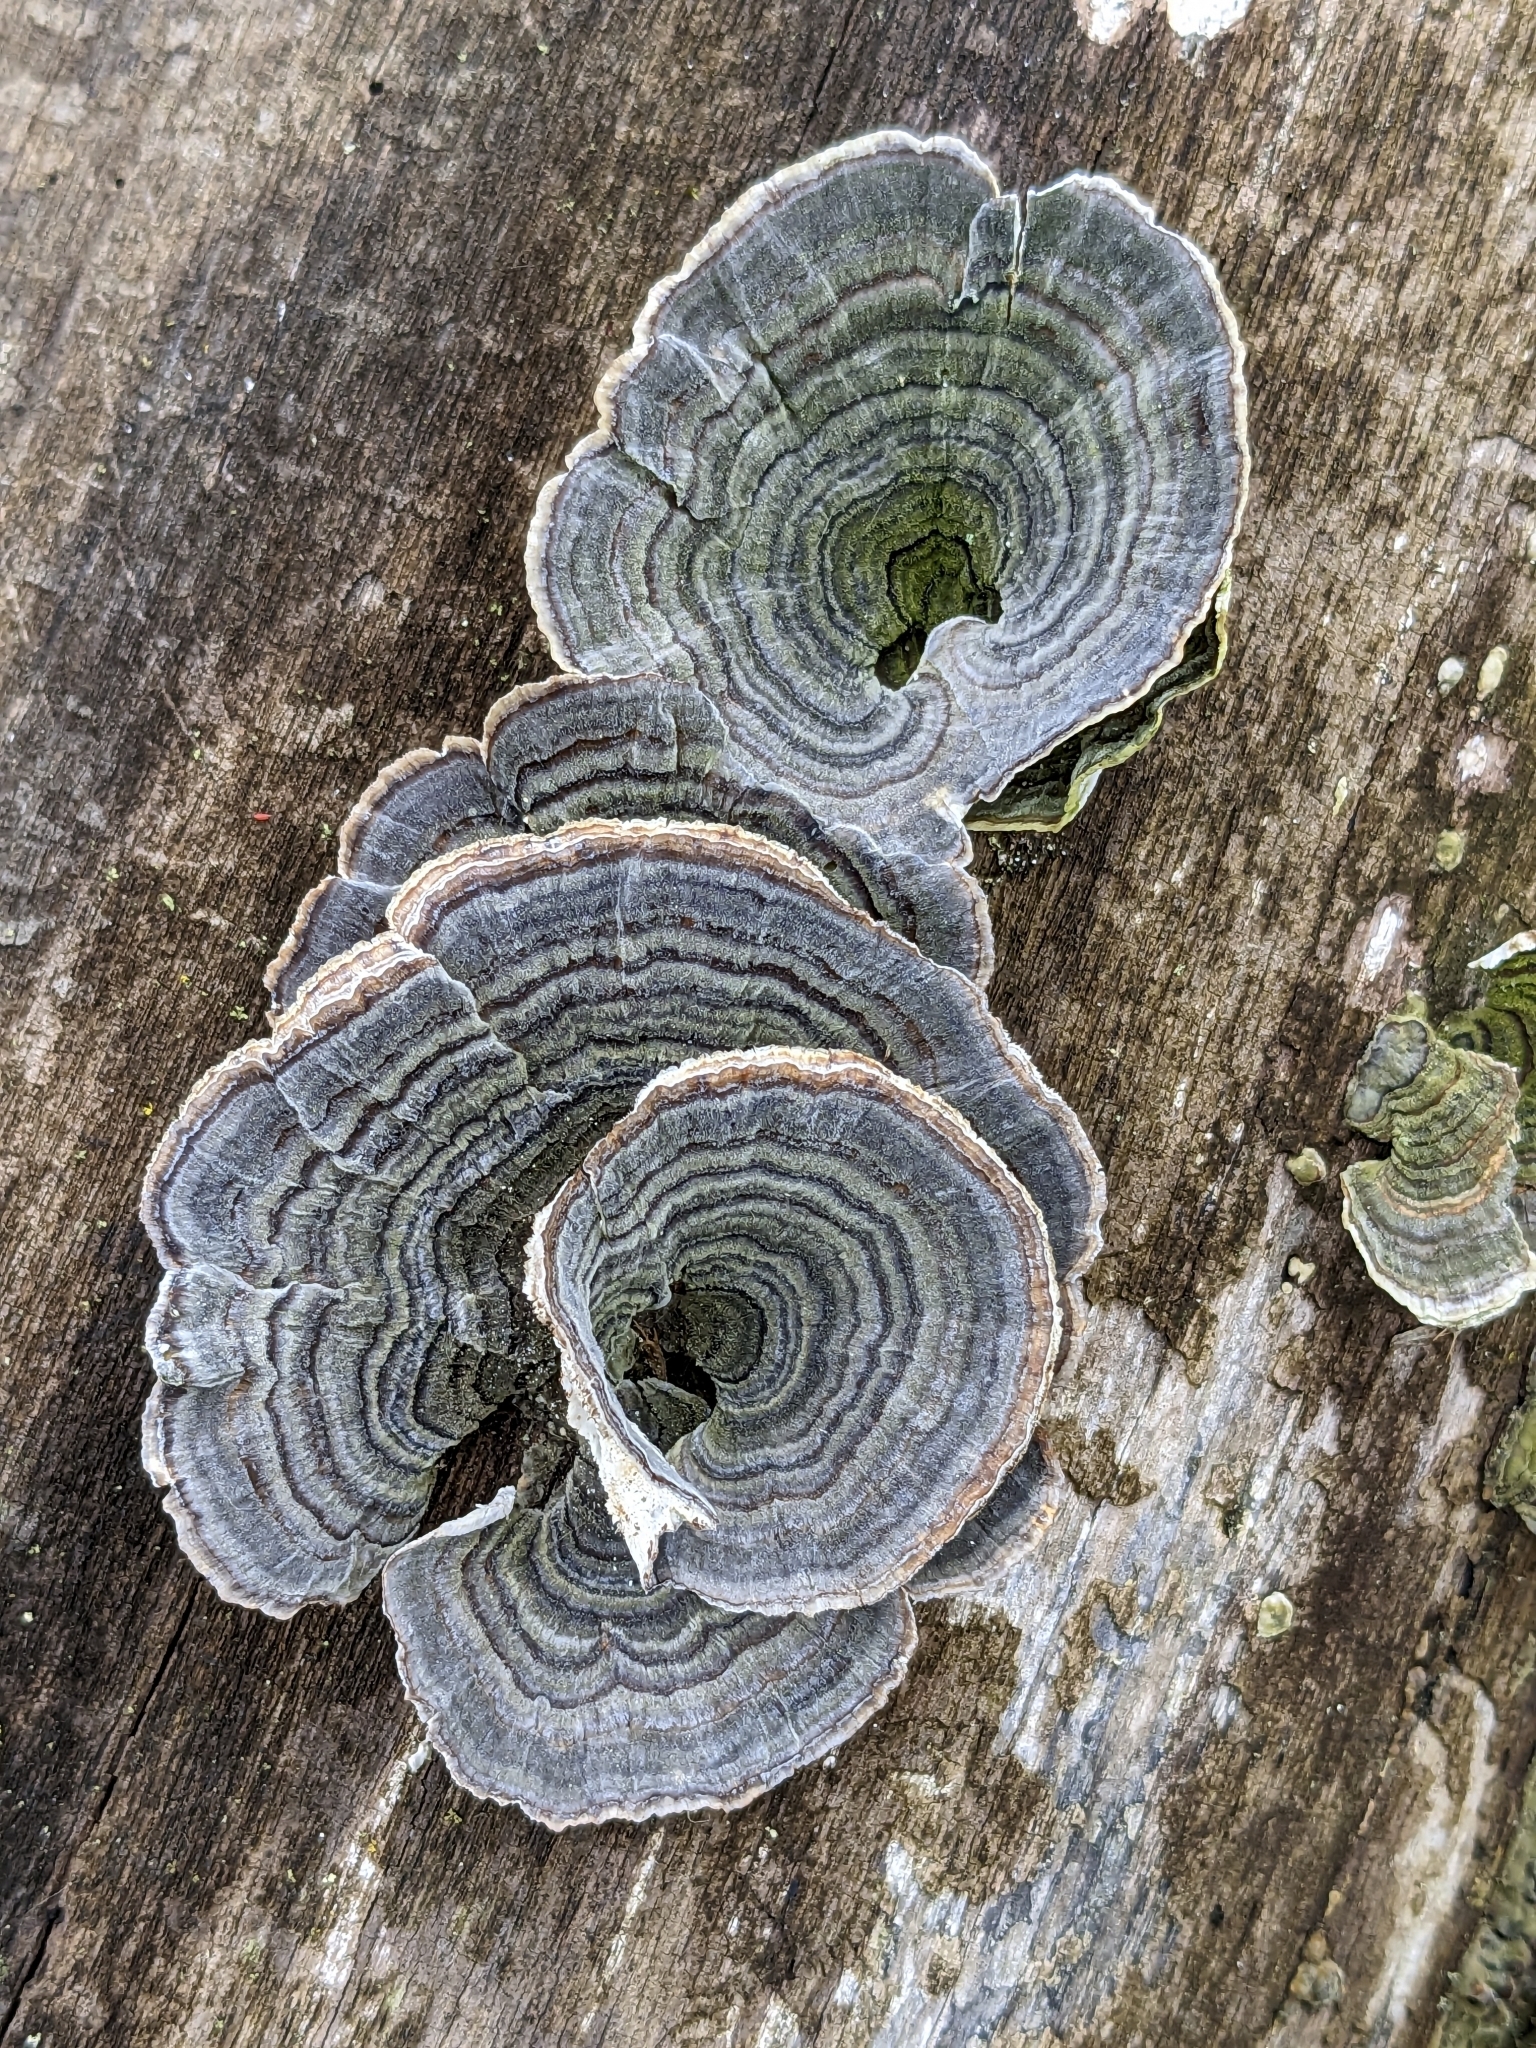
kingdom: Fungi
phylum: Basidiomycota
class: Agaricomycetes
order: Polyporales
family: Polyporaceae
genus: Trametes
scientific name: Trametes versicolor
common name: Turkeytail
